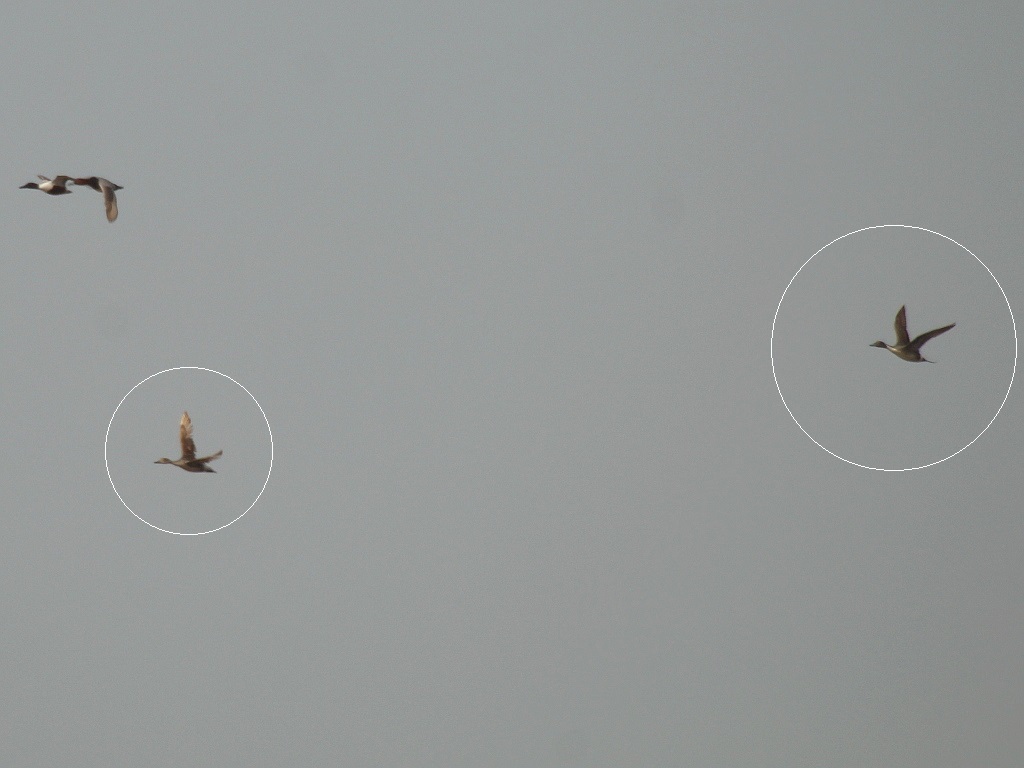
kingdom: Animalia
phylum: Chordata
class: Aves
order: Anseriformes
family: Anatidae
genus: Anas
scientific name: Anas acuta
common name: Northern pintail
